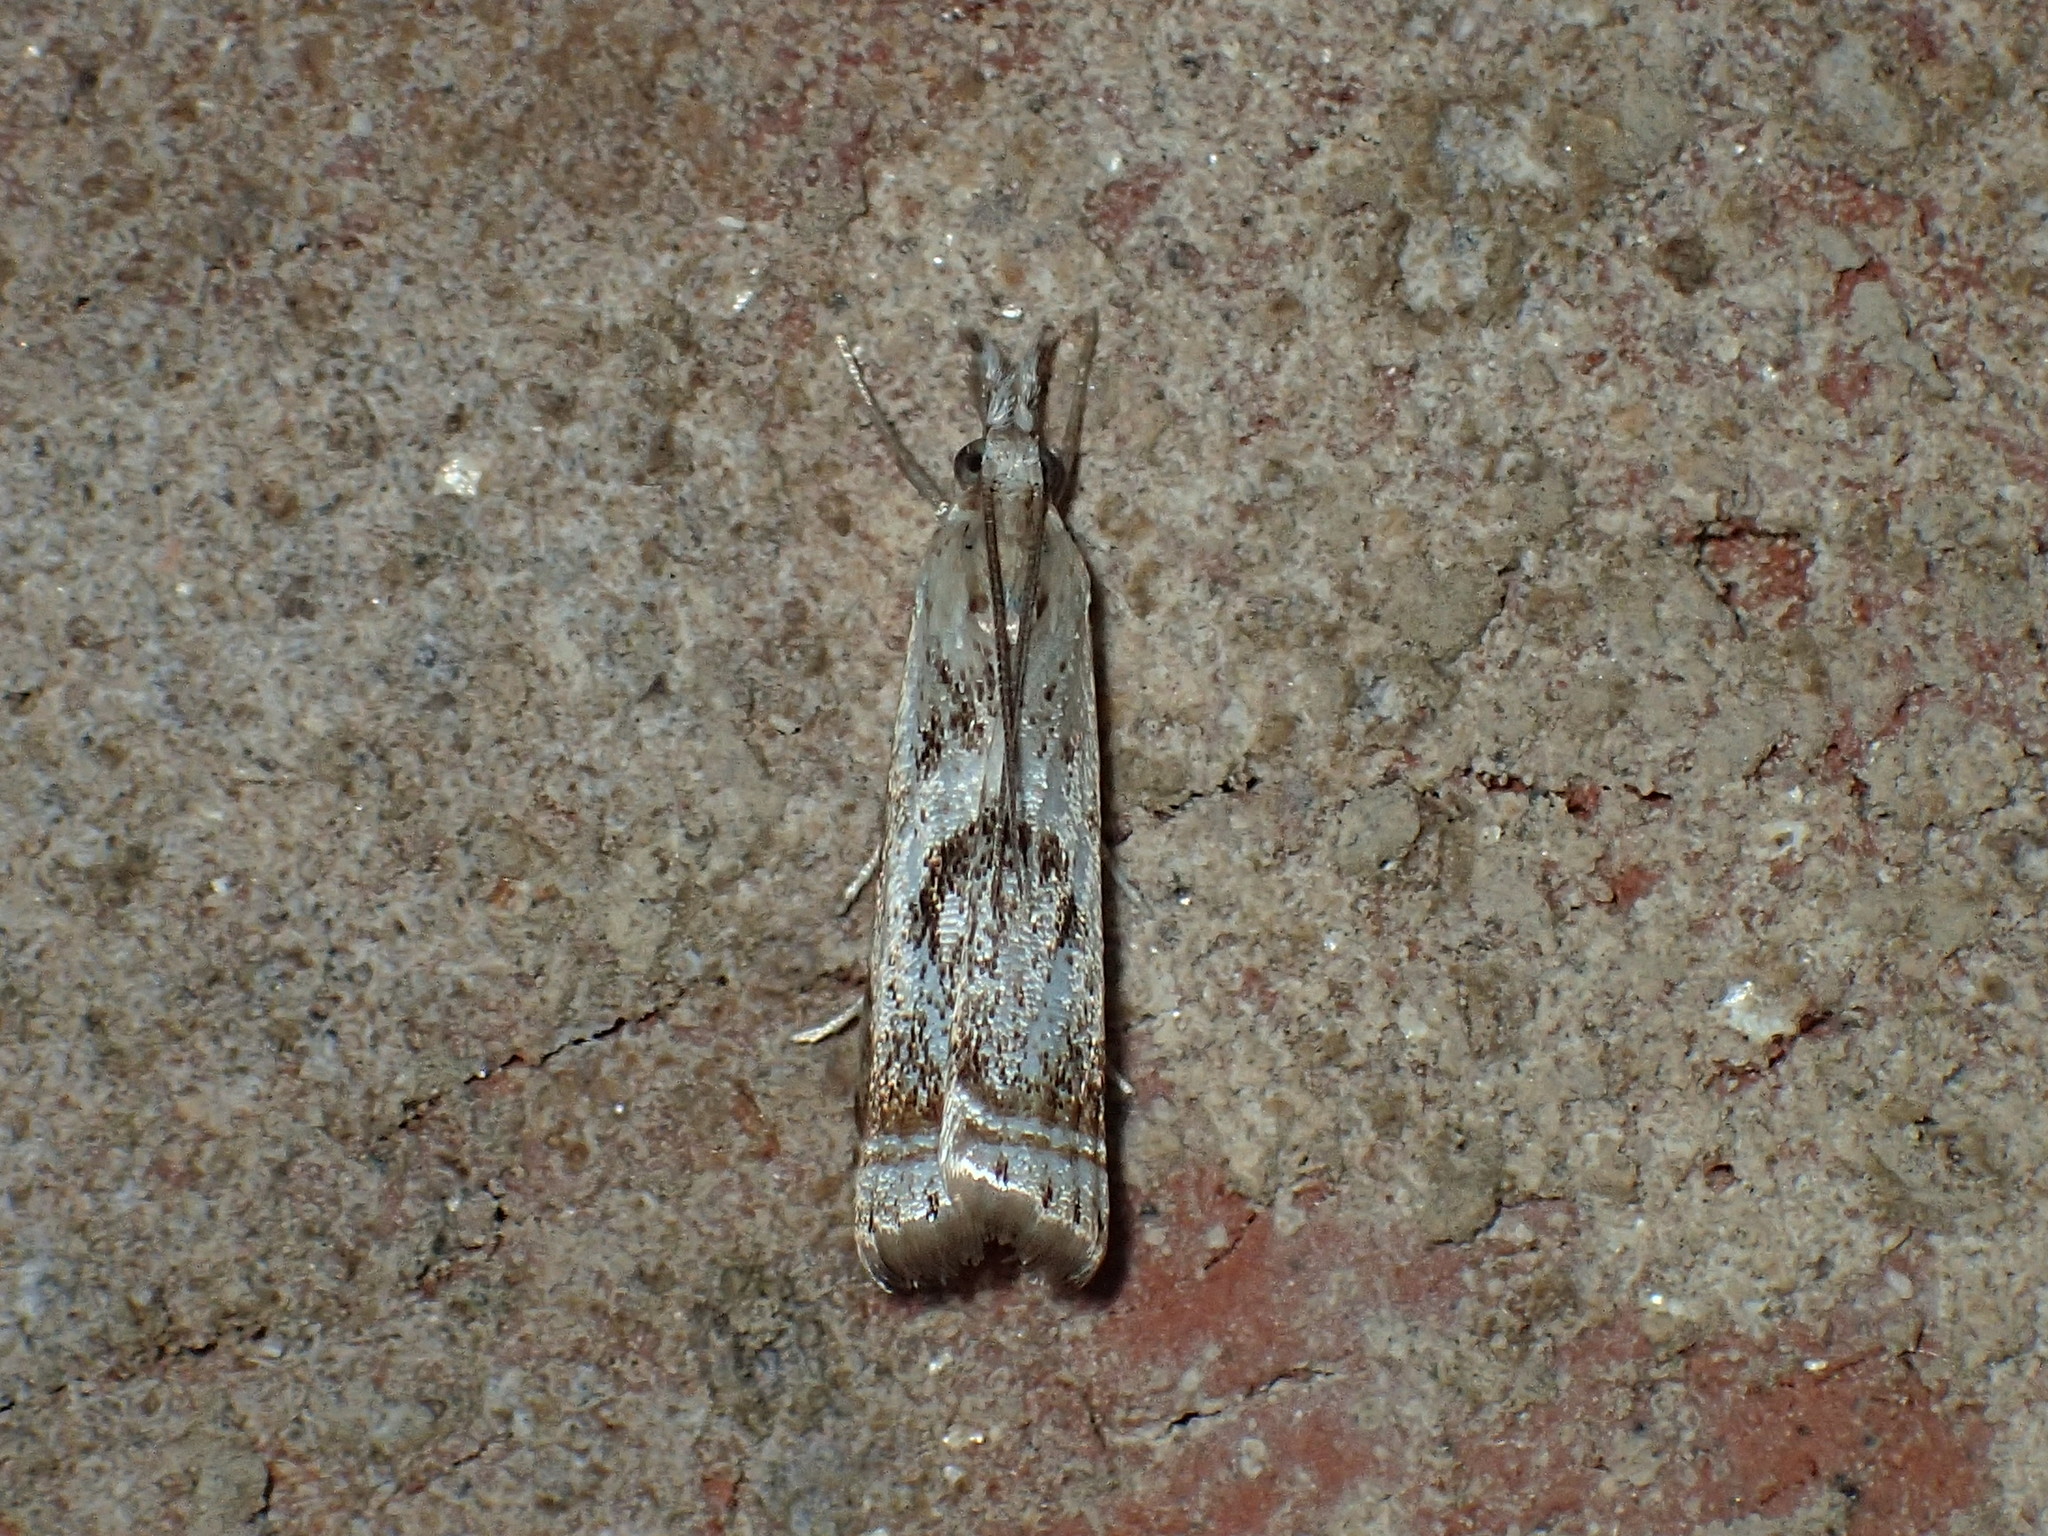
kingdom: Animalia
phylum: Arthropoda
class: Insecta
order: Lepidoptera
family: Crambidae
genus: Microcrambus
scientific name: Microcrambus elegans
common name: Elegant grass-veneer
